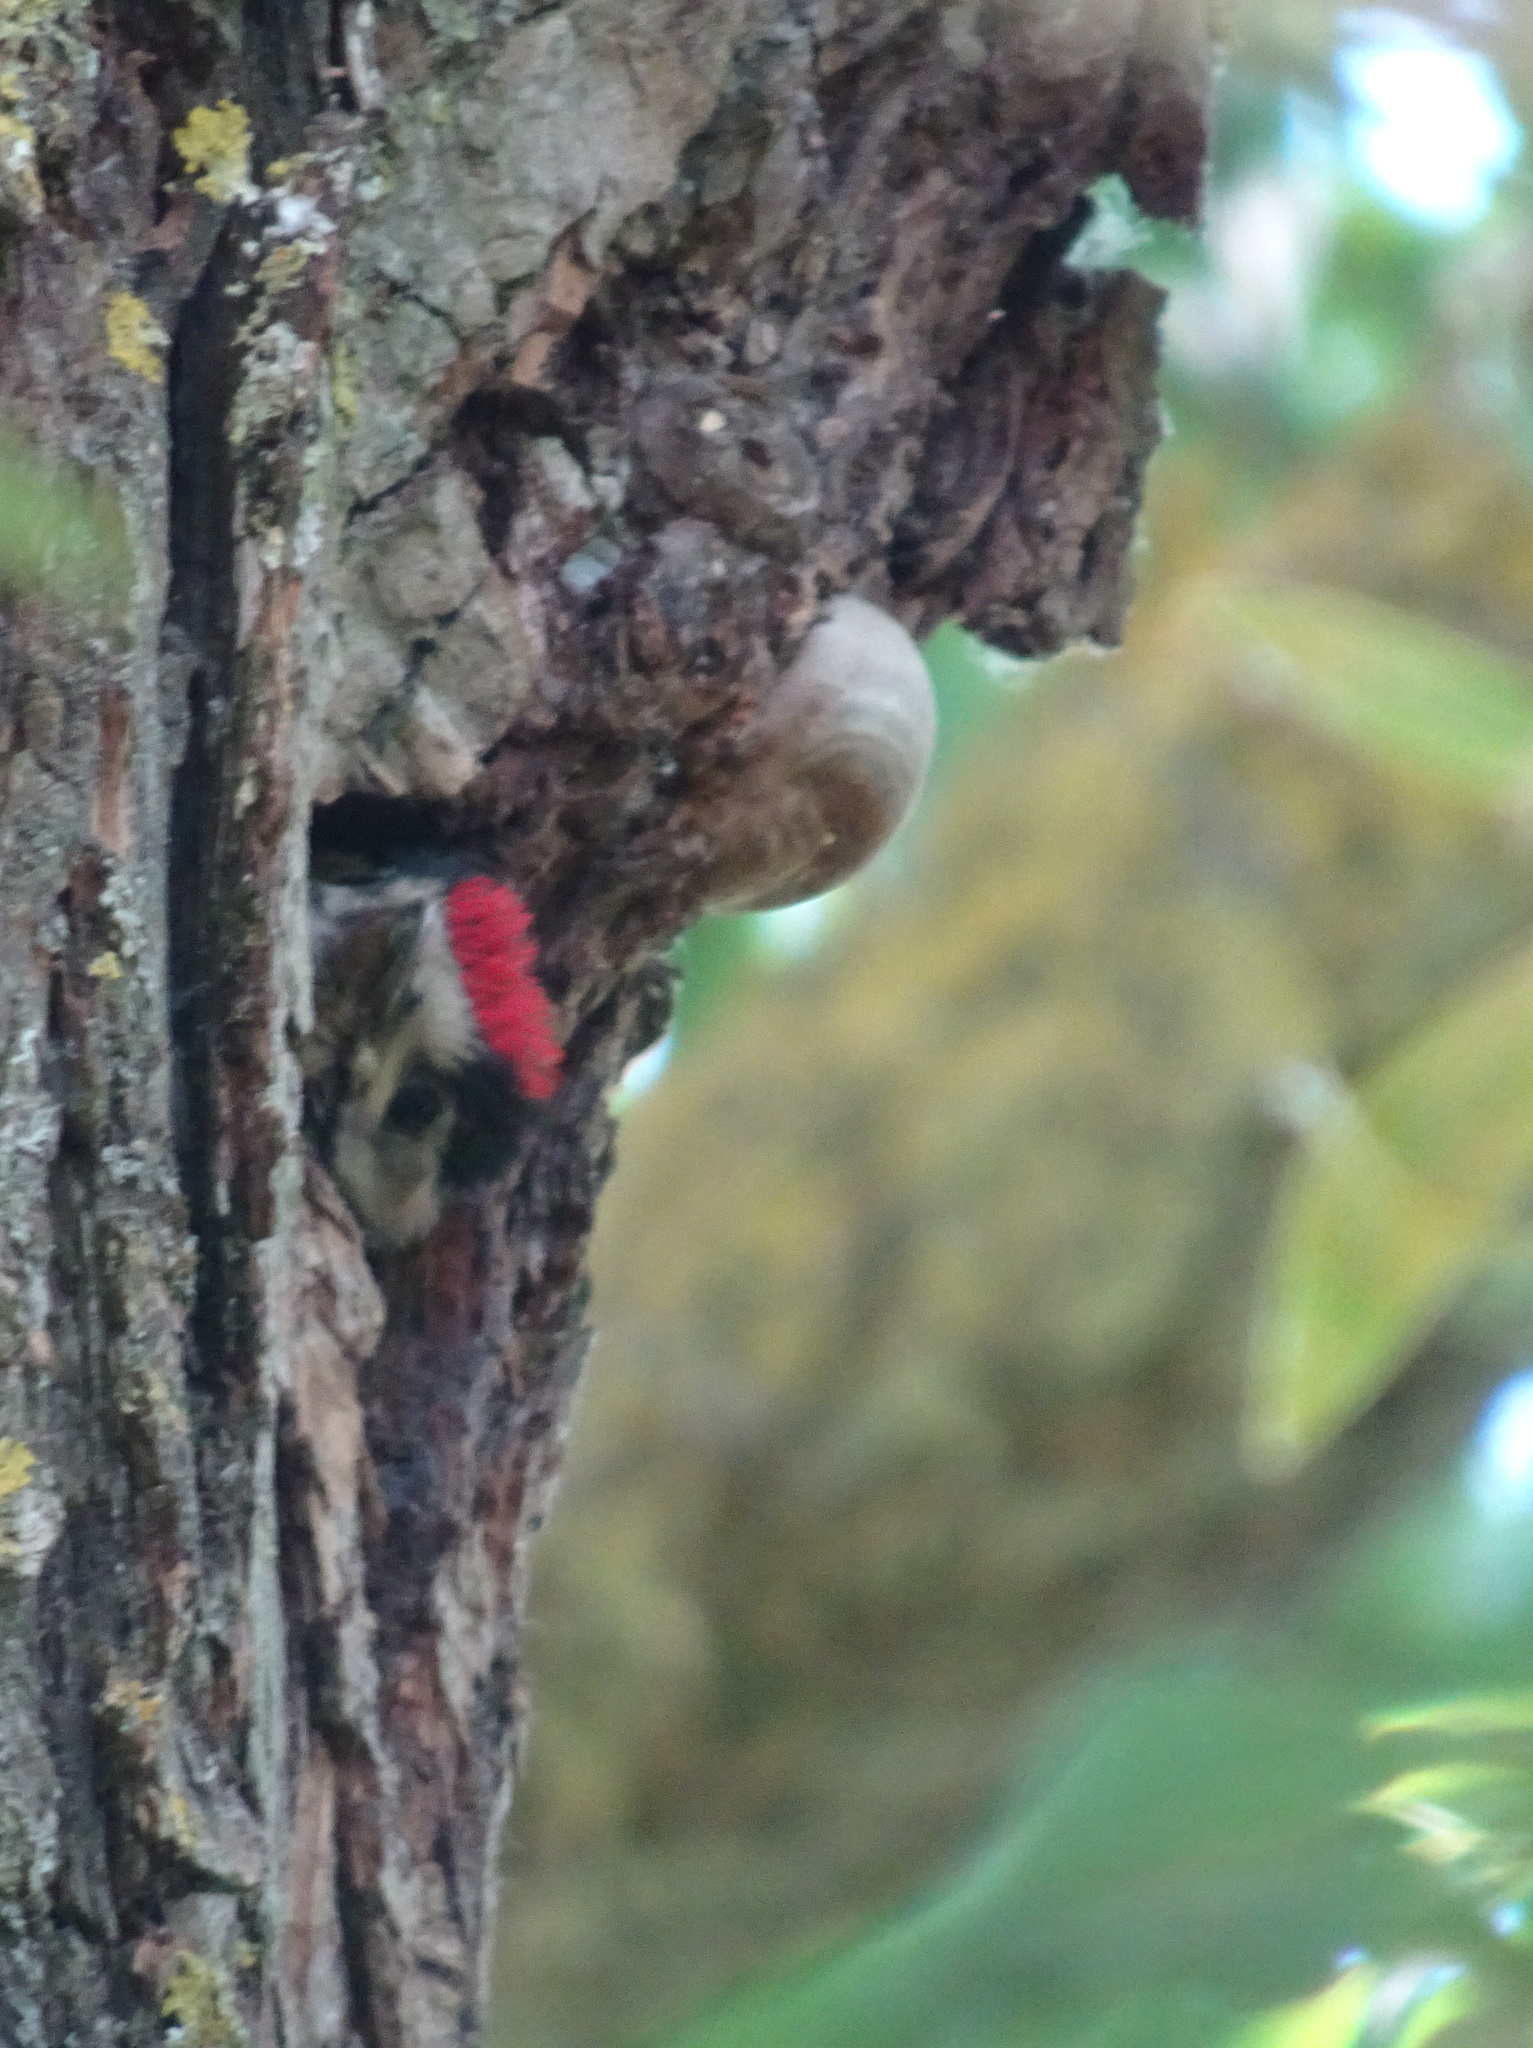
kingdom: Animalia
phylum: Chordata
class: Aves
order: Piciformes
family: Picidae
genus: Dendrocopos
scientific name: Dendrocopos major
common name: Great spotted woodpecker
